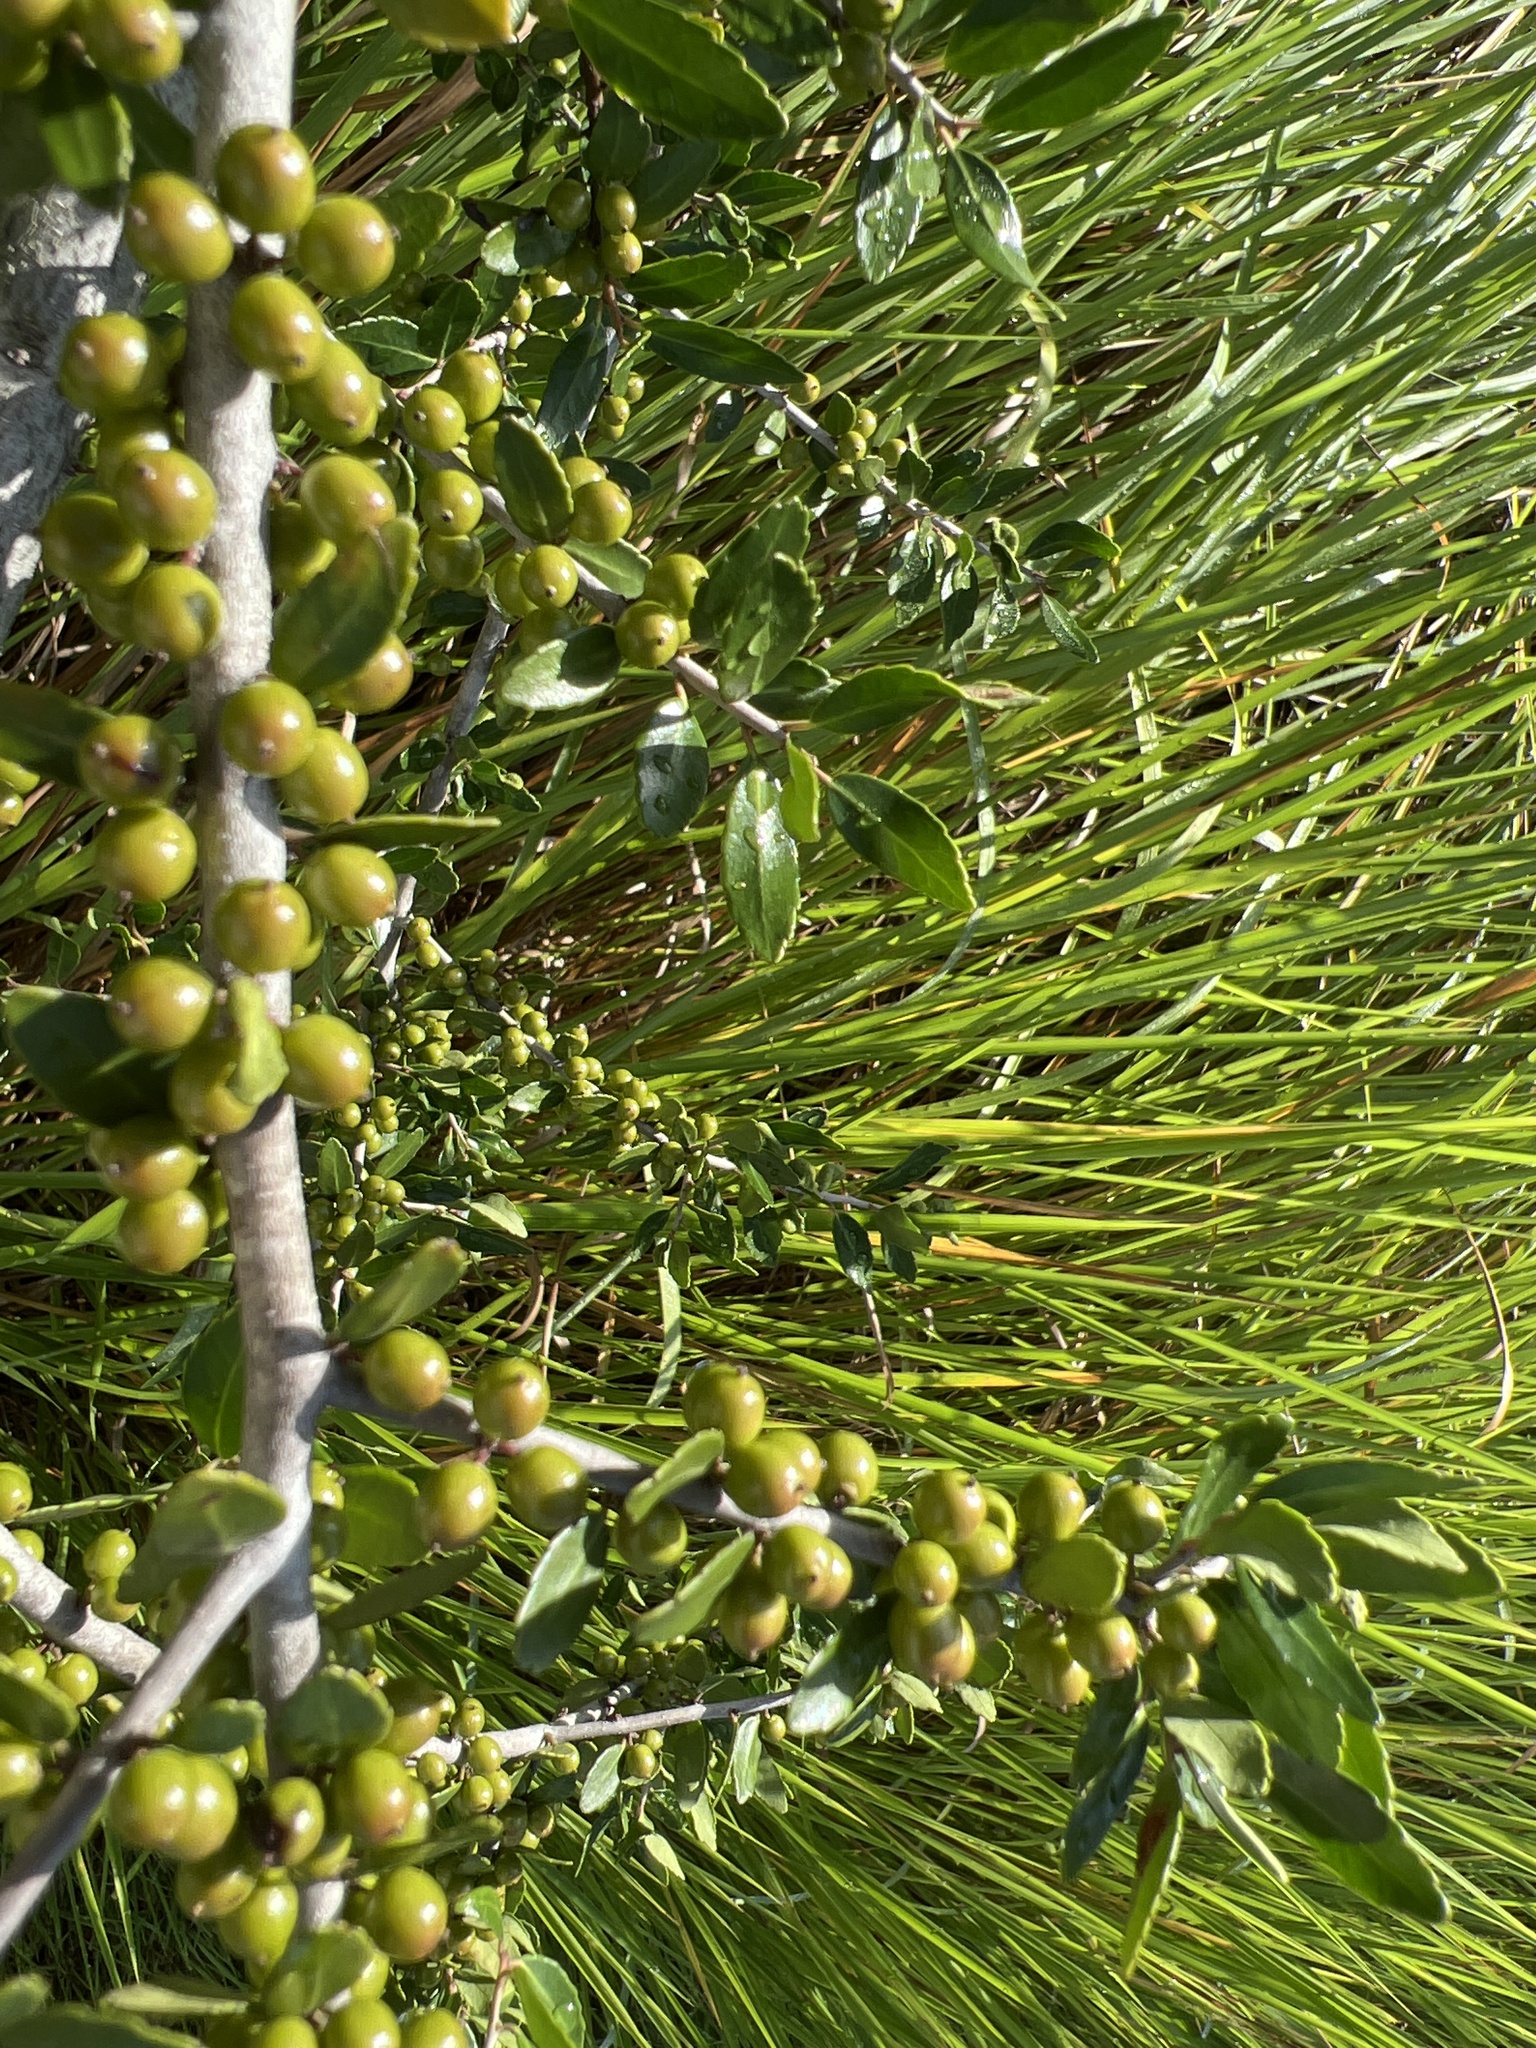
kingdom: Plantae
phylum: Tracheophyta
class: Magnoliopsida
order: Aquifoliales
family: Aquifoliaceae
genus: Ilex
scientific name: Ilex vomitoria
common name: Yaupon holly
